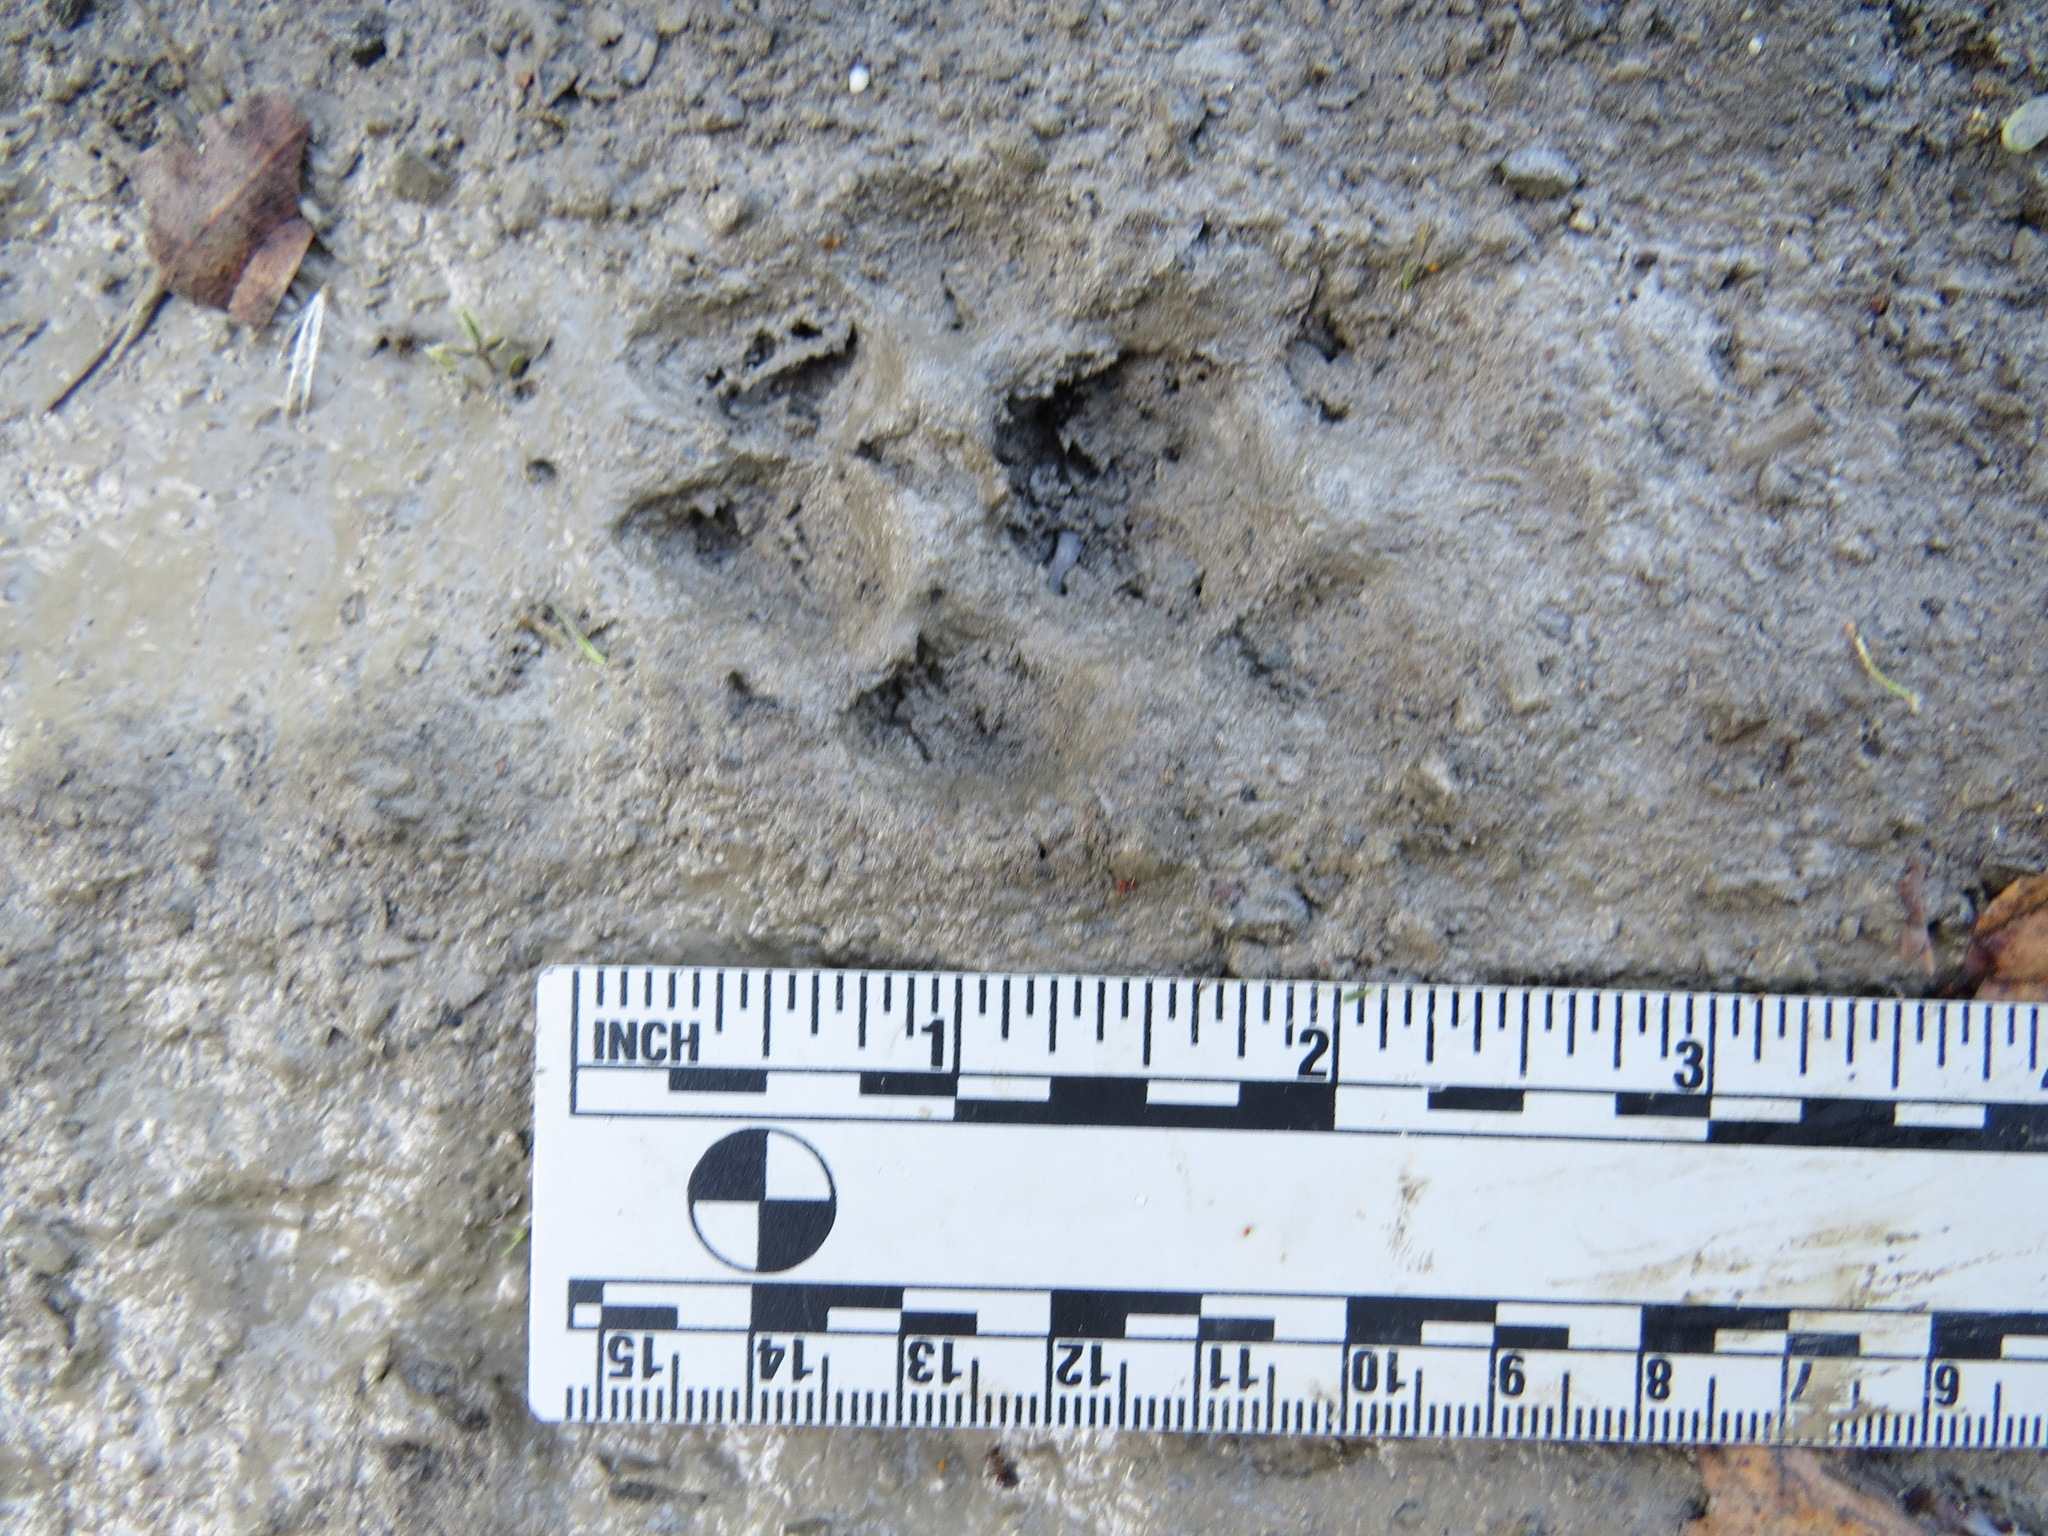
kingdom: Animalia
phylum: Chordata
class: Mammalia
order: Carnivora
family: Canidae
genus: Urocyon
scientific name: Urocyon cinereoargenteus
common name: Gray fox
